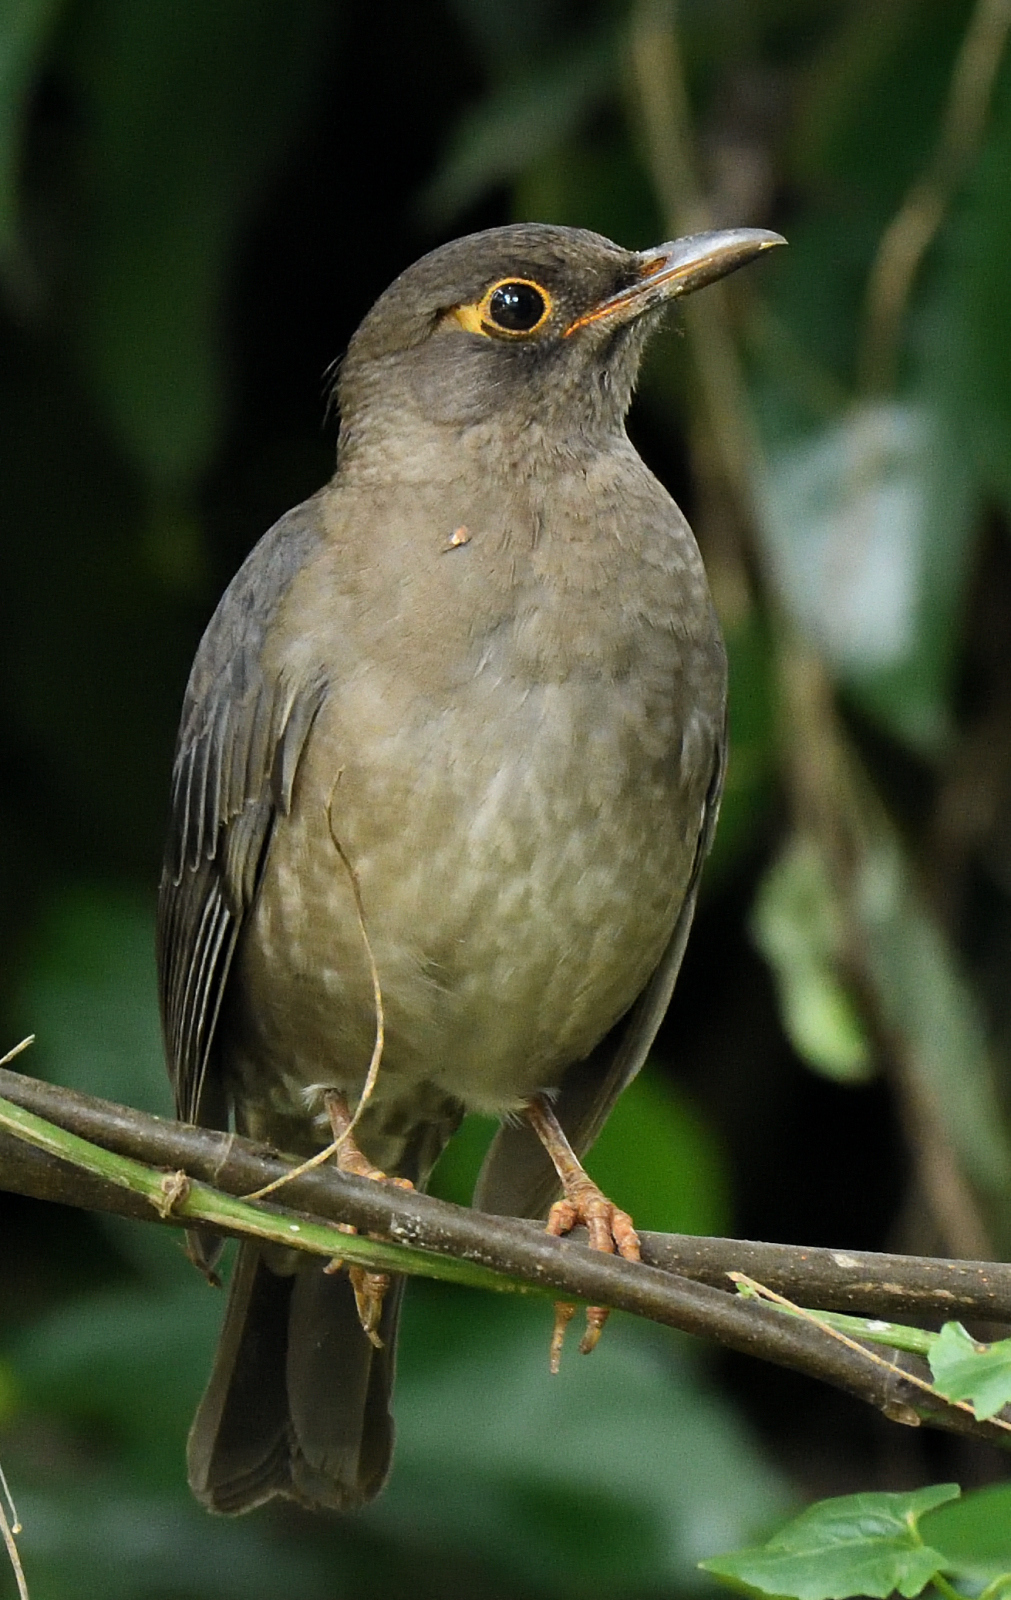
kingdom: Animalia
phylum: Chordata
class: Aves
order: Passeriformes
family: Turdidae
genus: Turdus
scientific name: Turdus simillimus
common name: Indian blackbird
